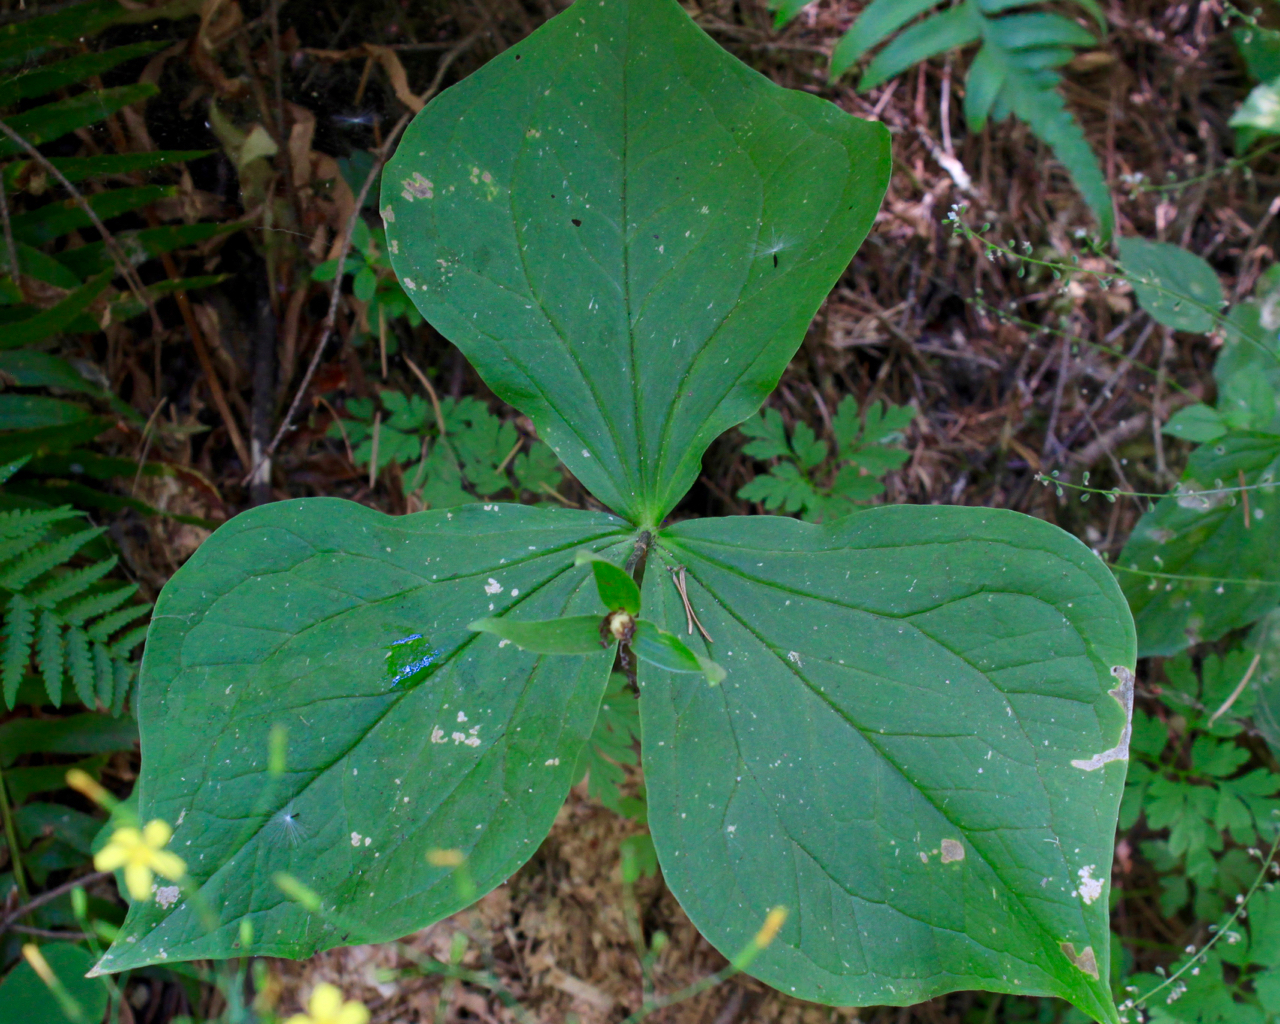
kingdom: Plantae
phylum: Tracheophyta
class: Liliopsida
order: Liliales
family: Melanthiaceae
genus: Trillium
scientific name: Trillium ovatum
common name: Pacific trillium
